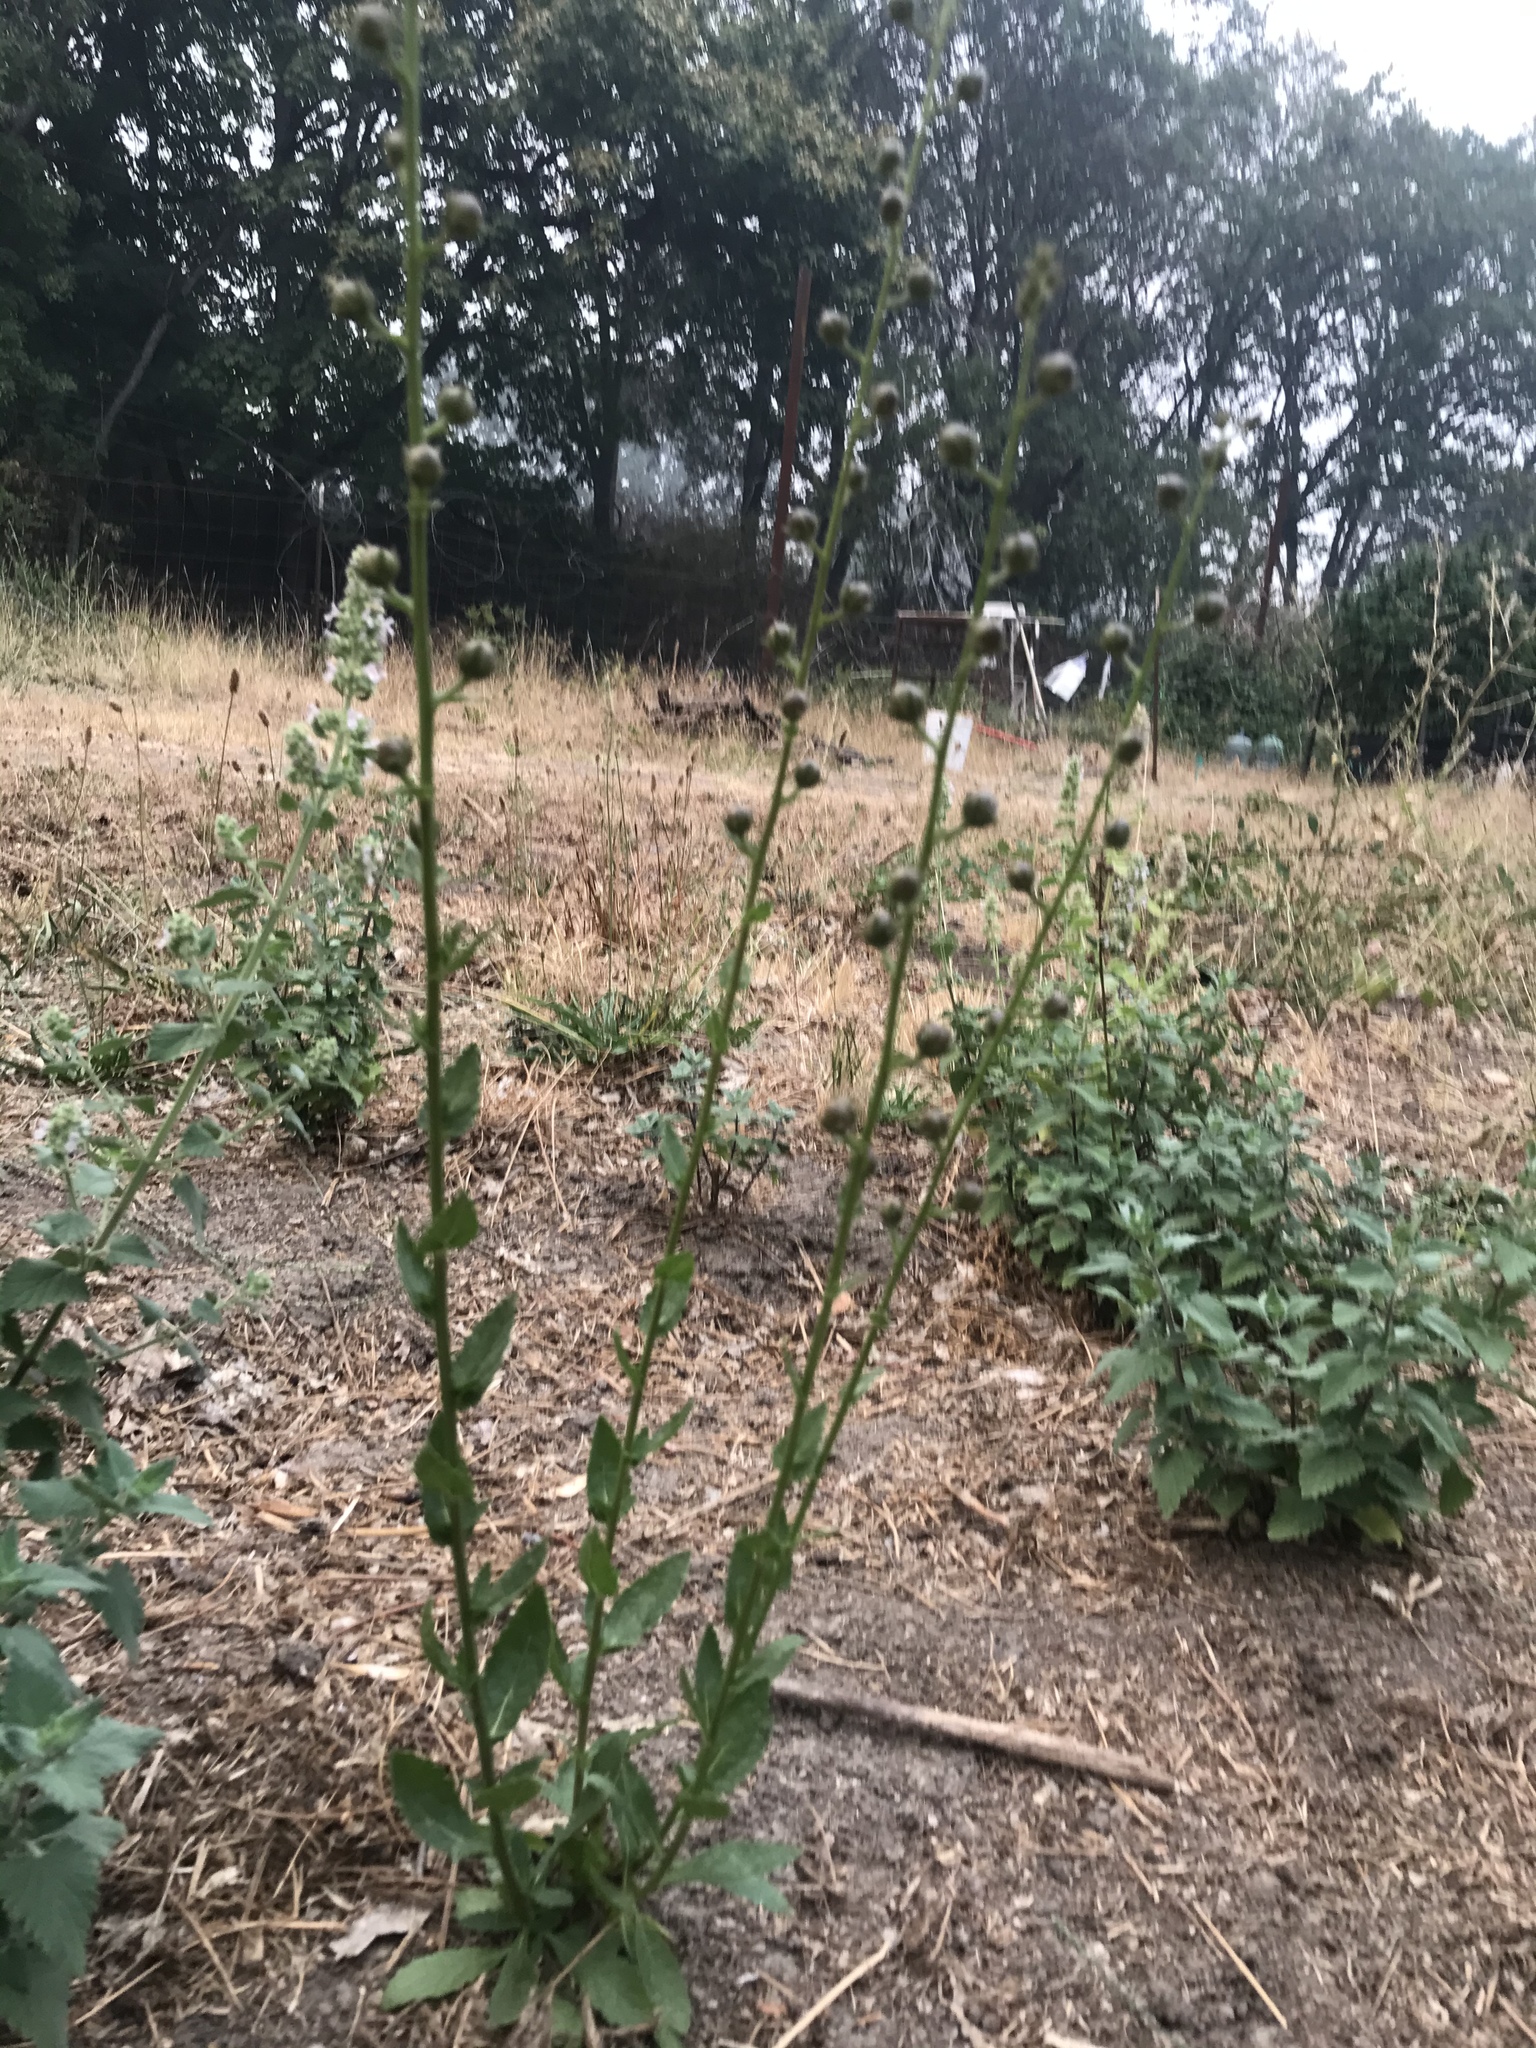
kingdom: Plantae
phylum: Tracheophyta
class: Magnoliopsida
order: Lamiales
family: Scrophulariaceae
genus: Verbascum
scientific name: Verbascum blattaria
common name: Moth mullein
